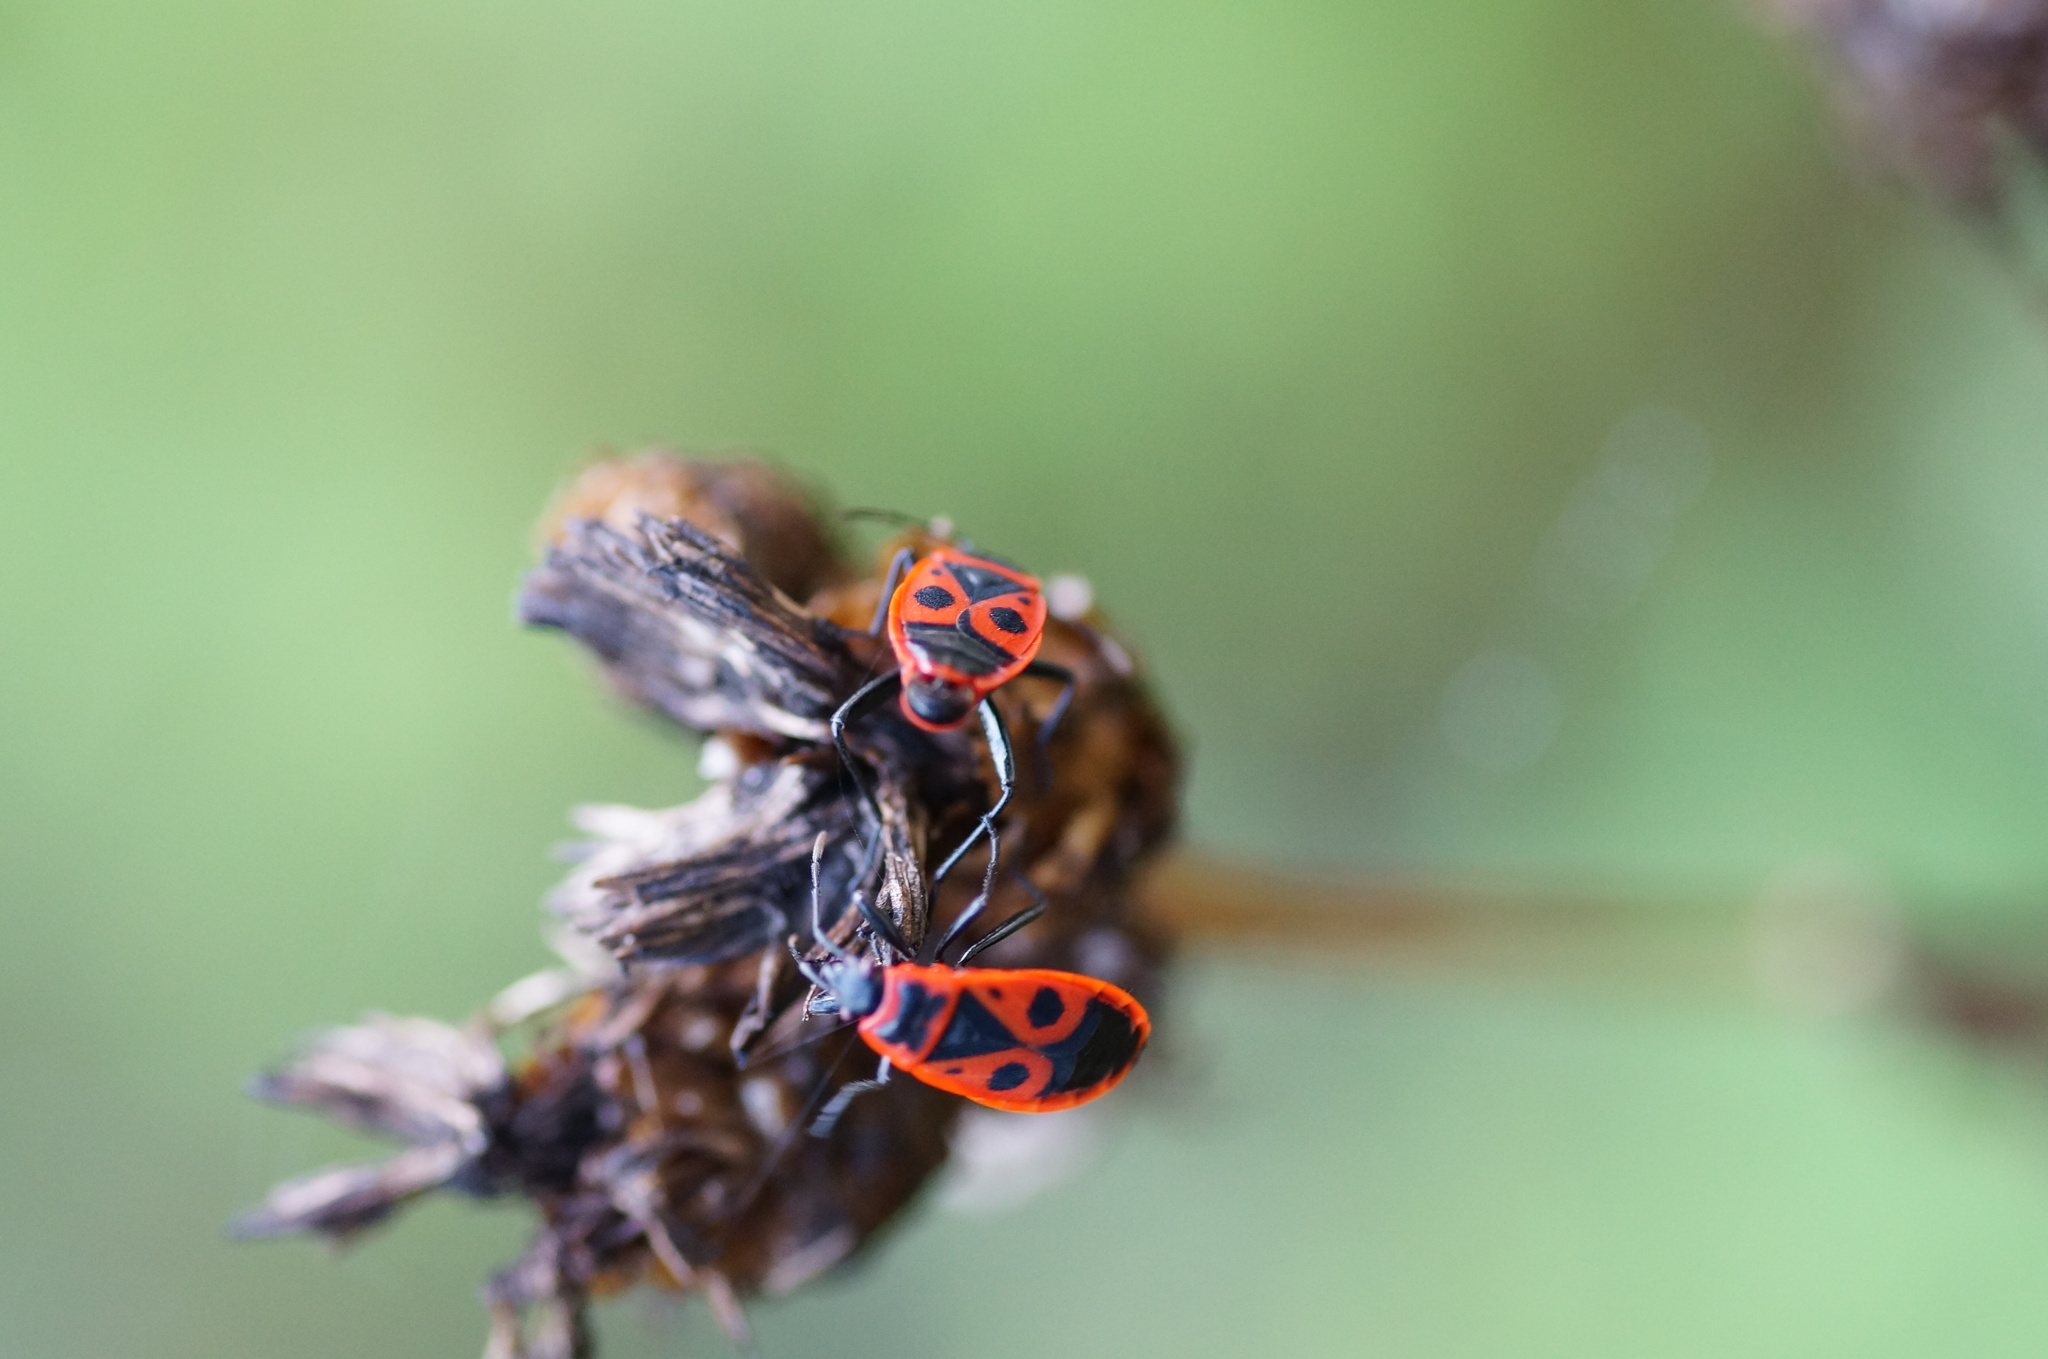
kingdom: Animalia
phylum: Arthropoda
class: Insecta
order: Hemiptera
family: Pyrrhocoridae
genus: Pyrrhocoris
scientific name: Pyrrhocoris apterus
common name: Firebug
